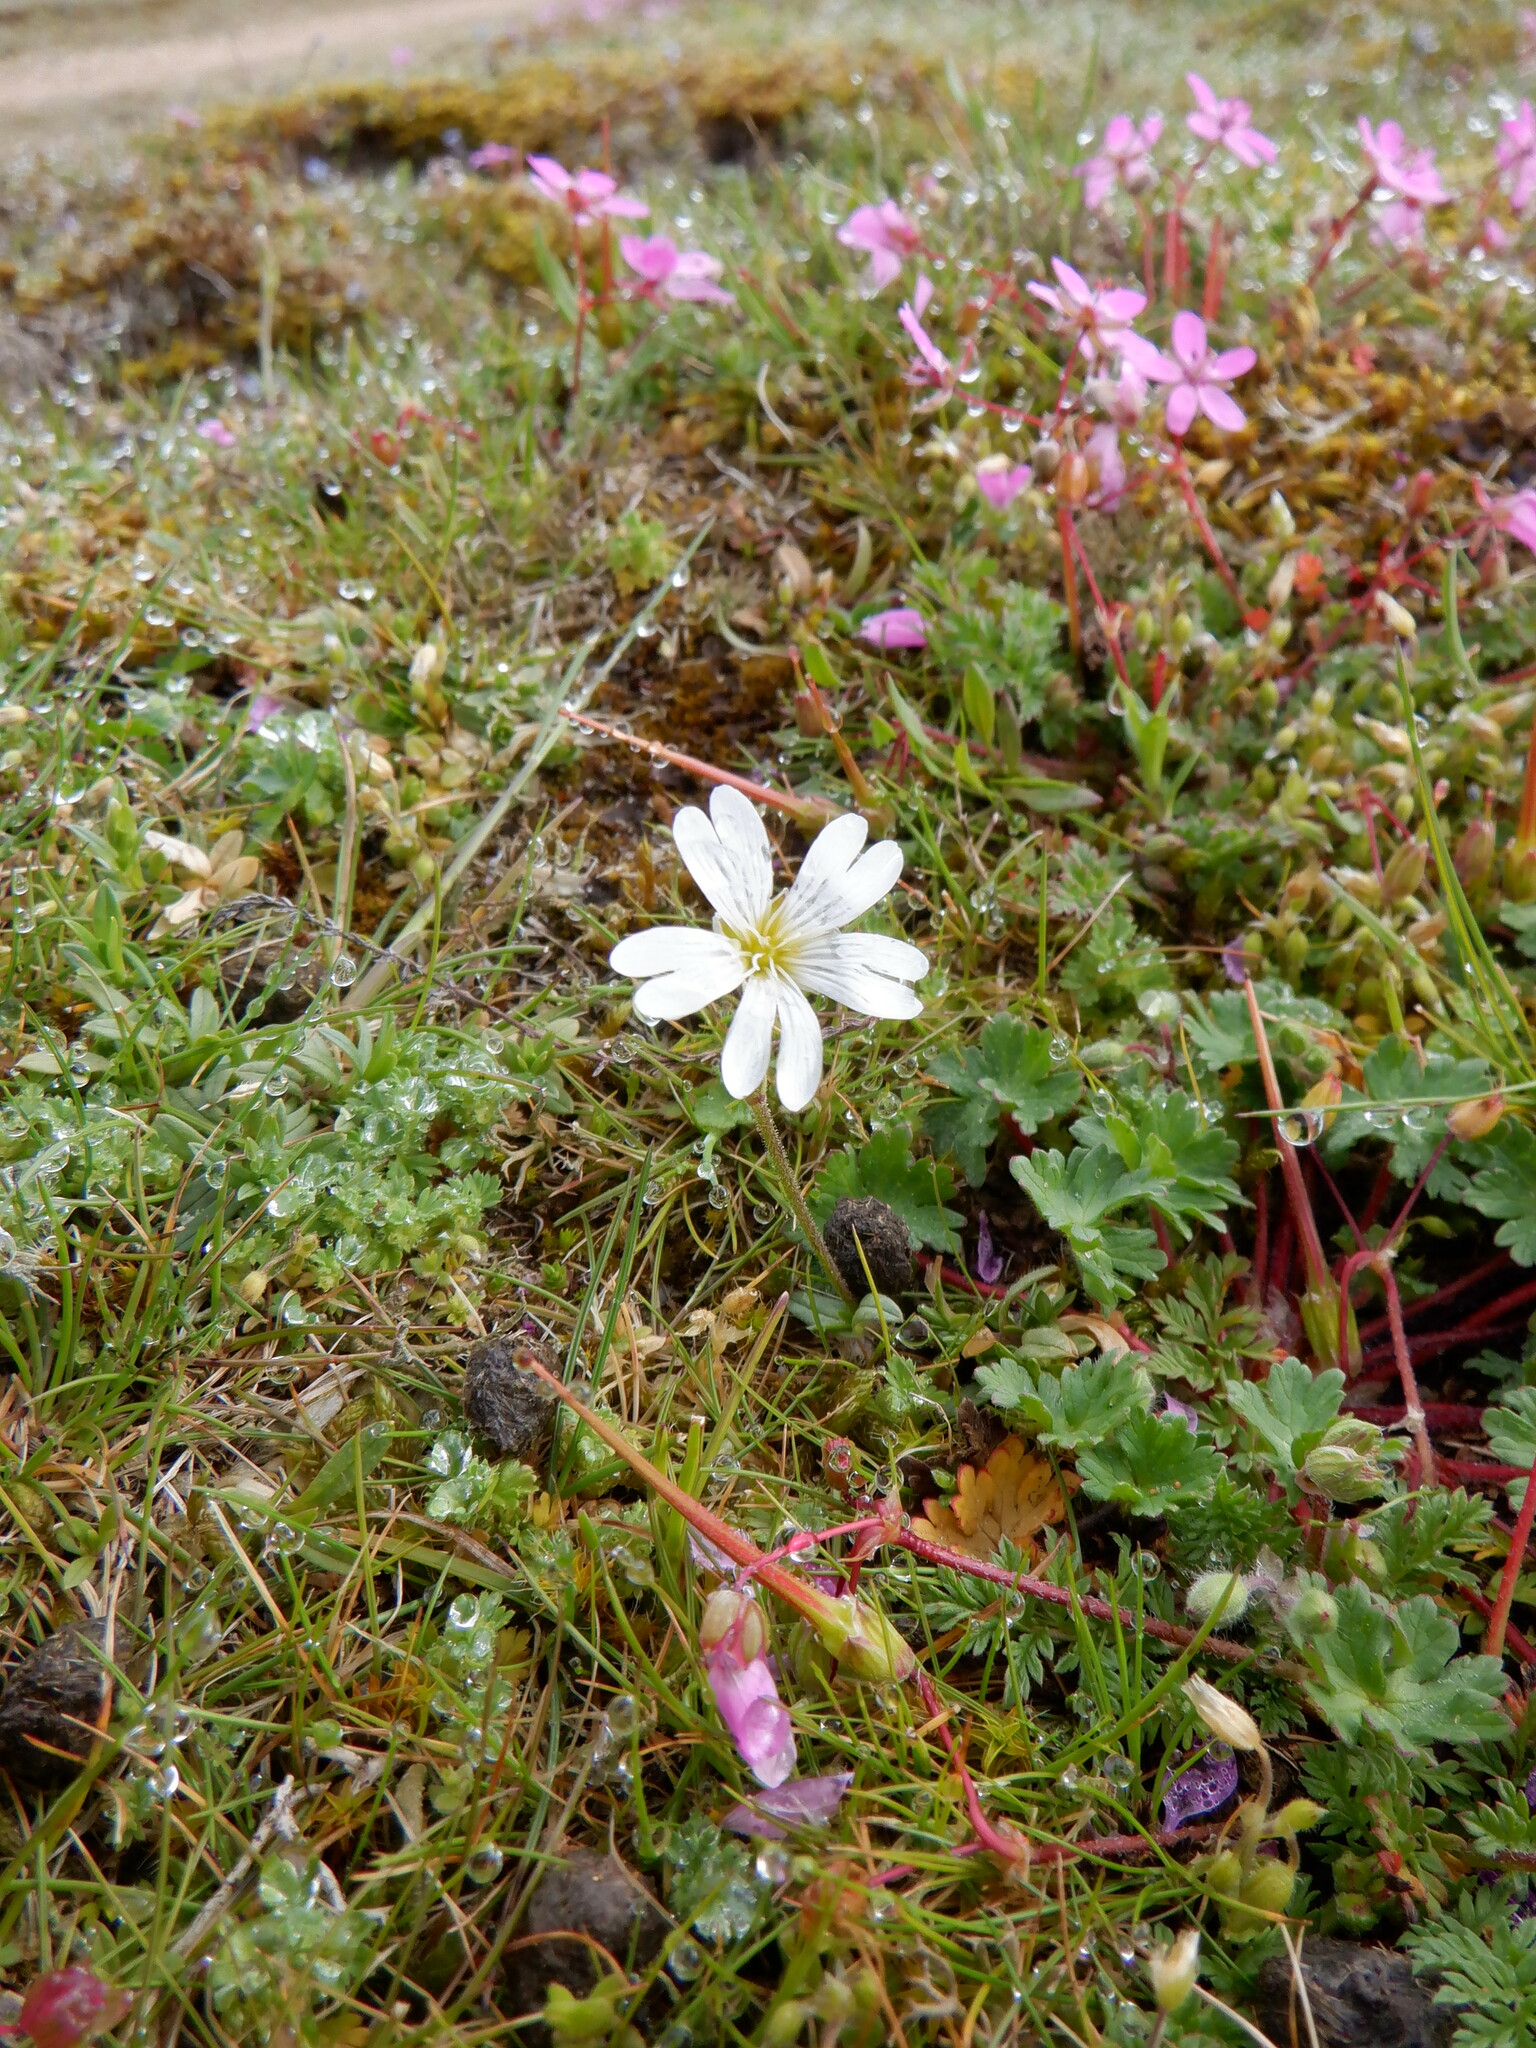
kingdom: Plantae
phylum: Tracheophyta
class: Magnoliopsida
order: Caryophyllales
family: Caryophyllaceae
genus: Cerastium
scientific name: Cerastium arvense
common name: Field mouse-ear
